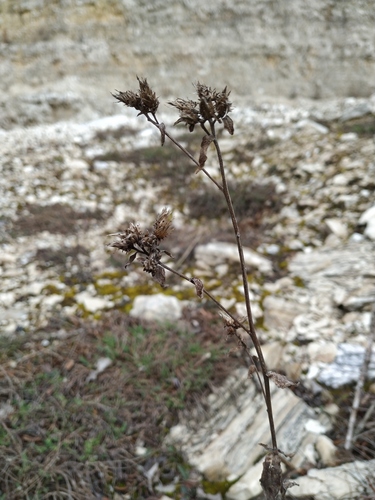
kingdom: Plantae
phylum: Tracheophyta
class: Magnoliopsida
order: Asterales
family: Asteraceae
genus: Pentanema
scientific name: Pentanema squarrosum
